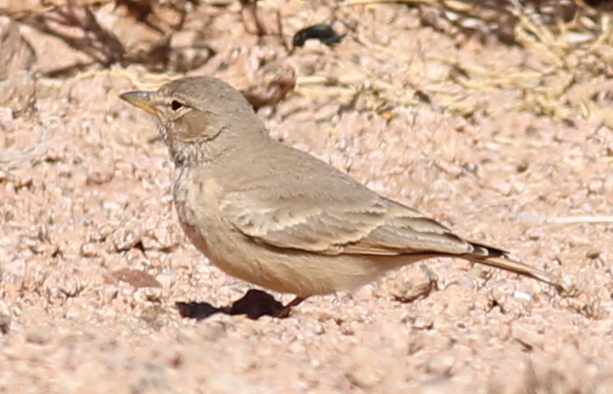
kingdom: Animalia
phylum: Chordata
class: Aves
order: Passeriformes
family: Alaudidae
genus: Ammomanes
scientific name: Ammomanes deserti
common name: Desert lark
